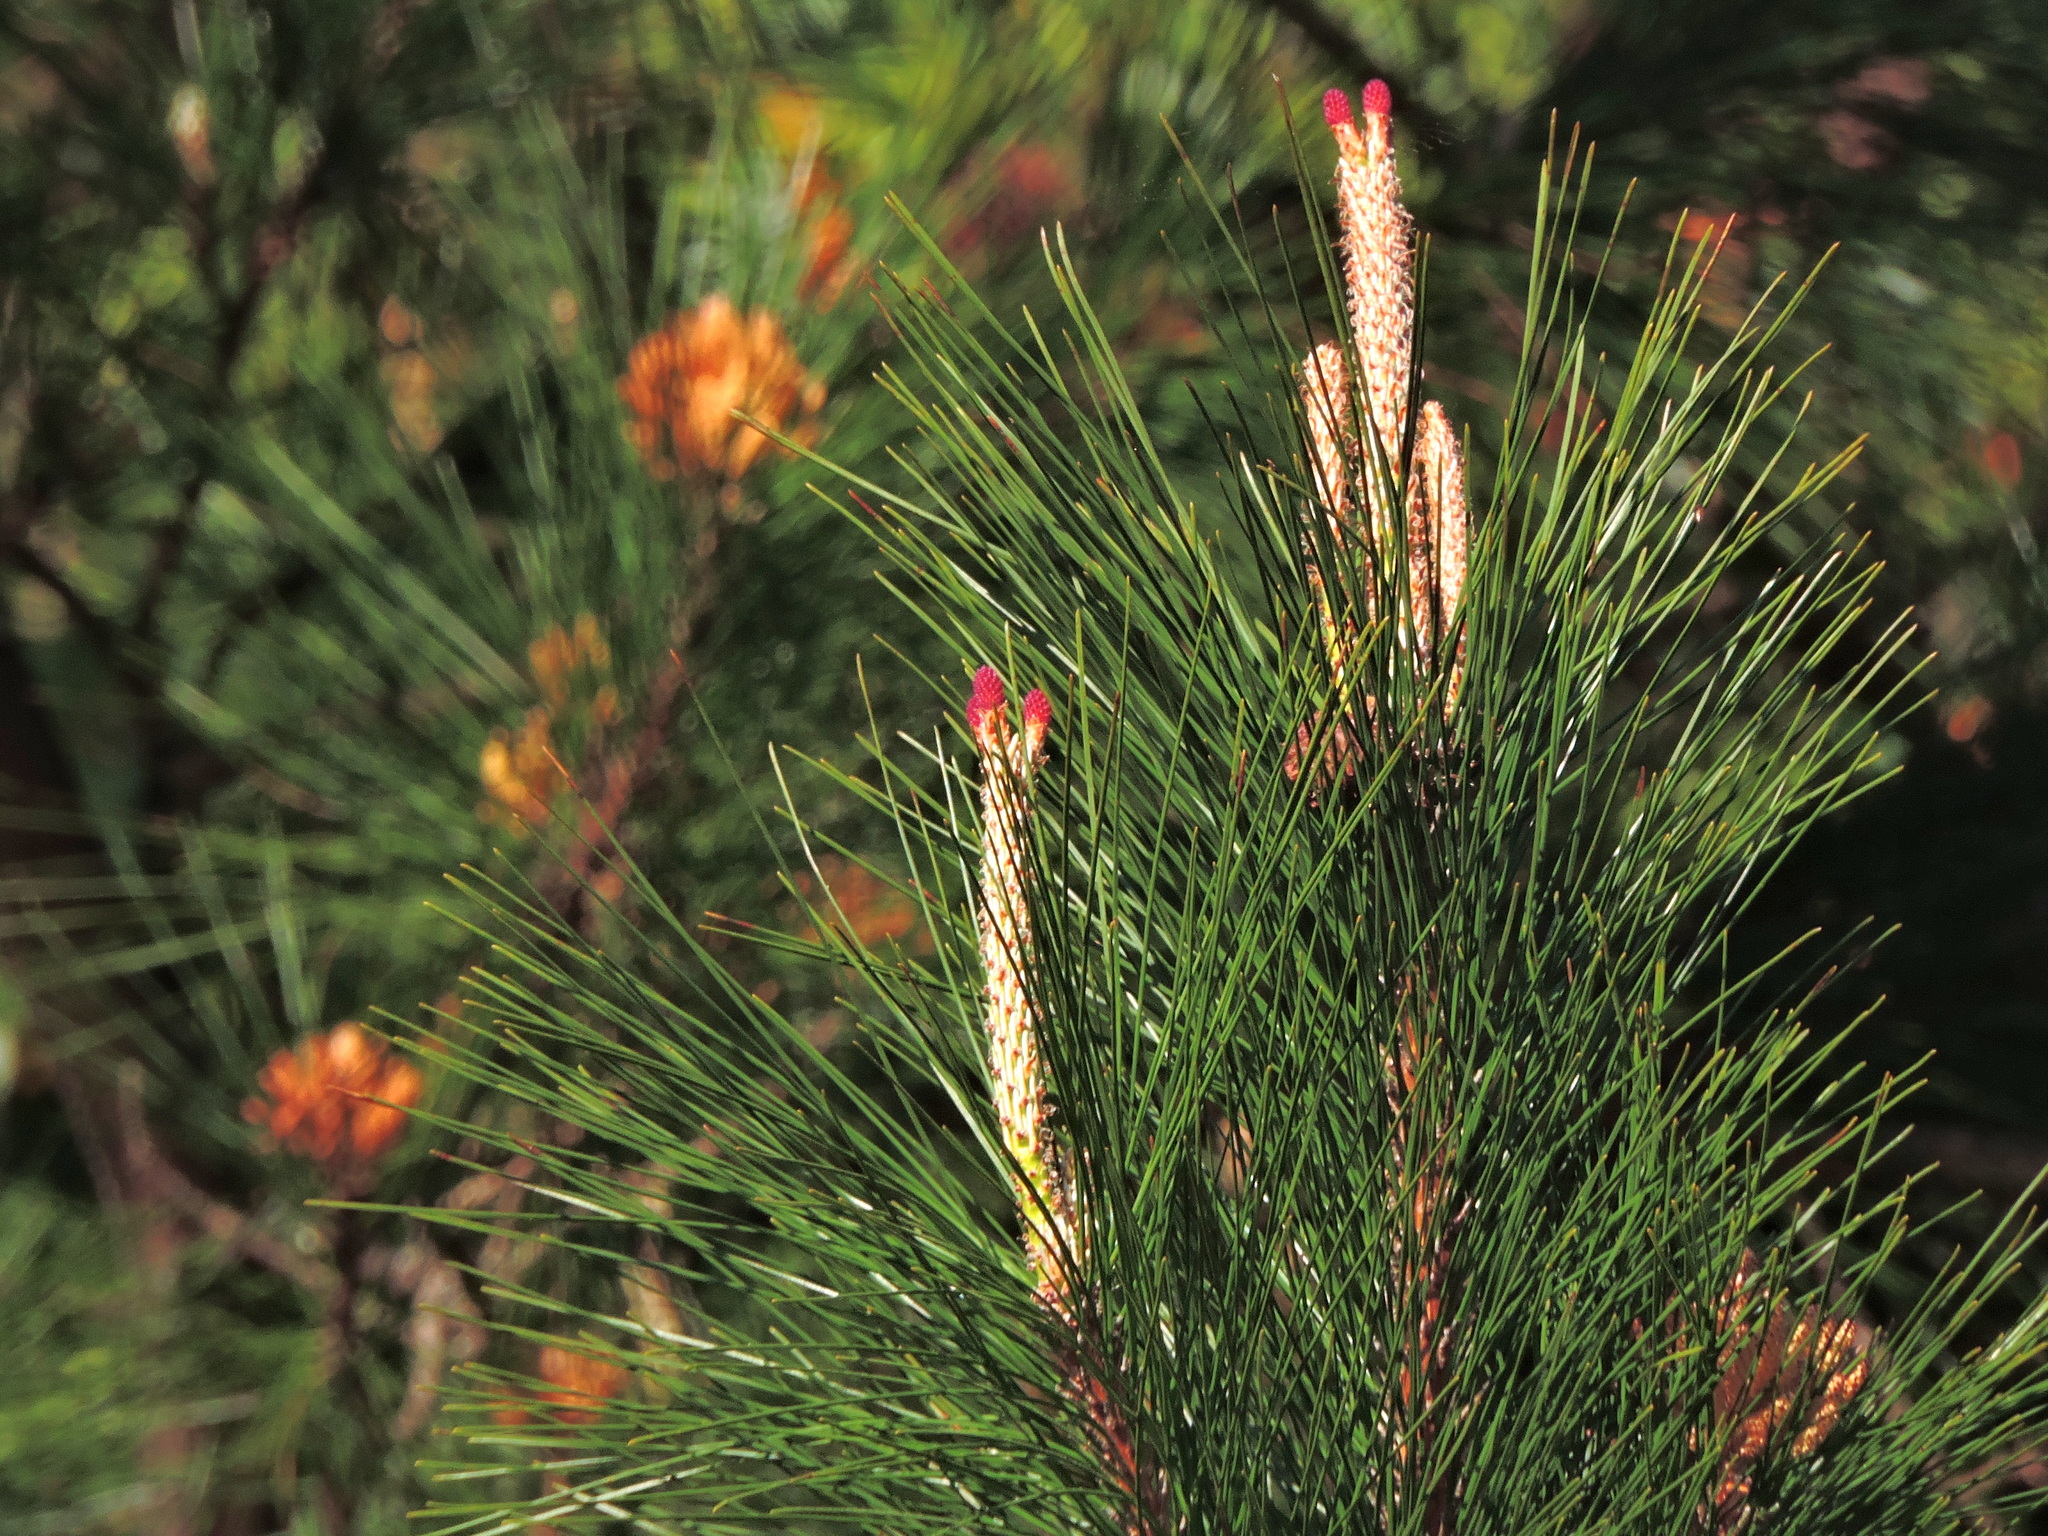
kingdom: Plantae
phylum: Tracheophyta
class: Pinopsida
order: Pinales
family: Pinaceae
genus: Pinus
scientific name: Pinus taiwanensis
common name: Formosa pine
